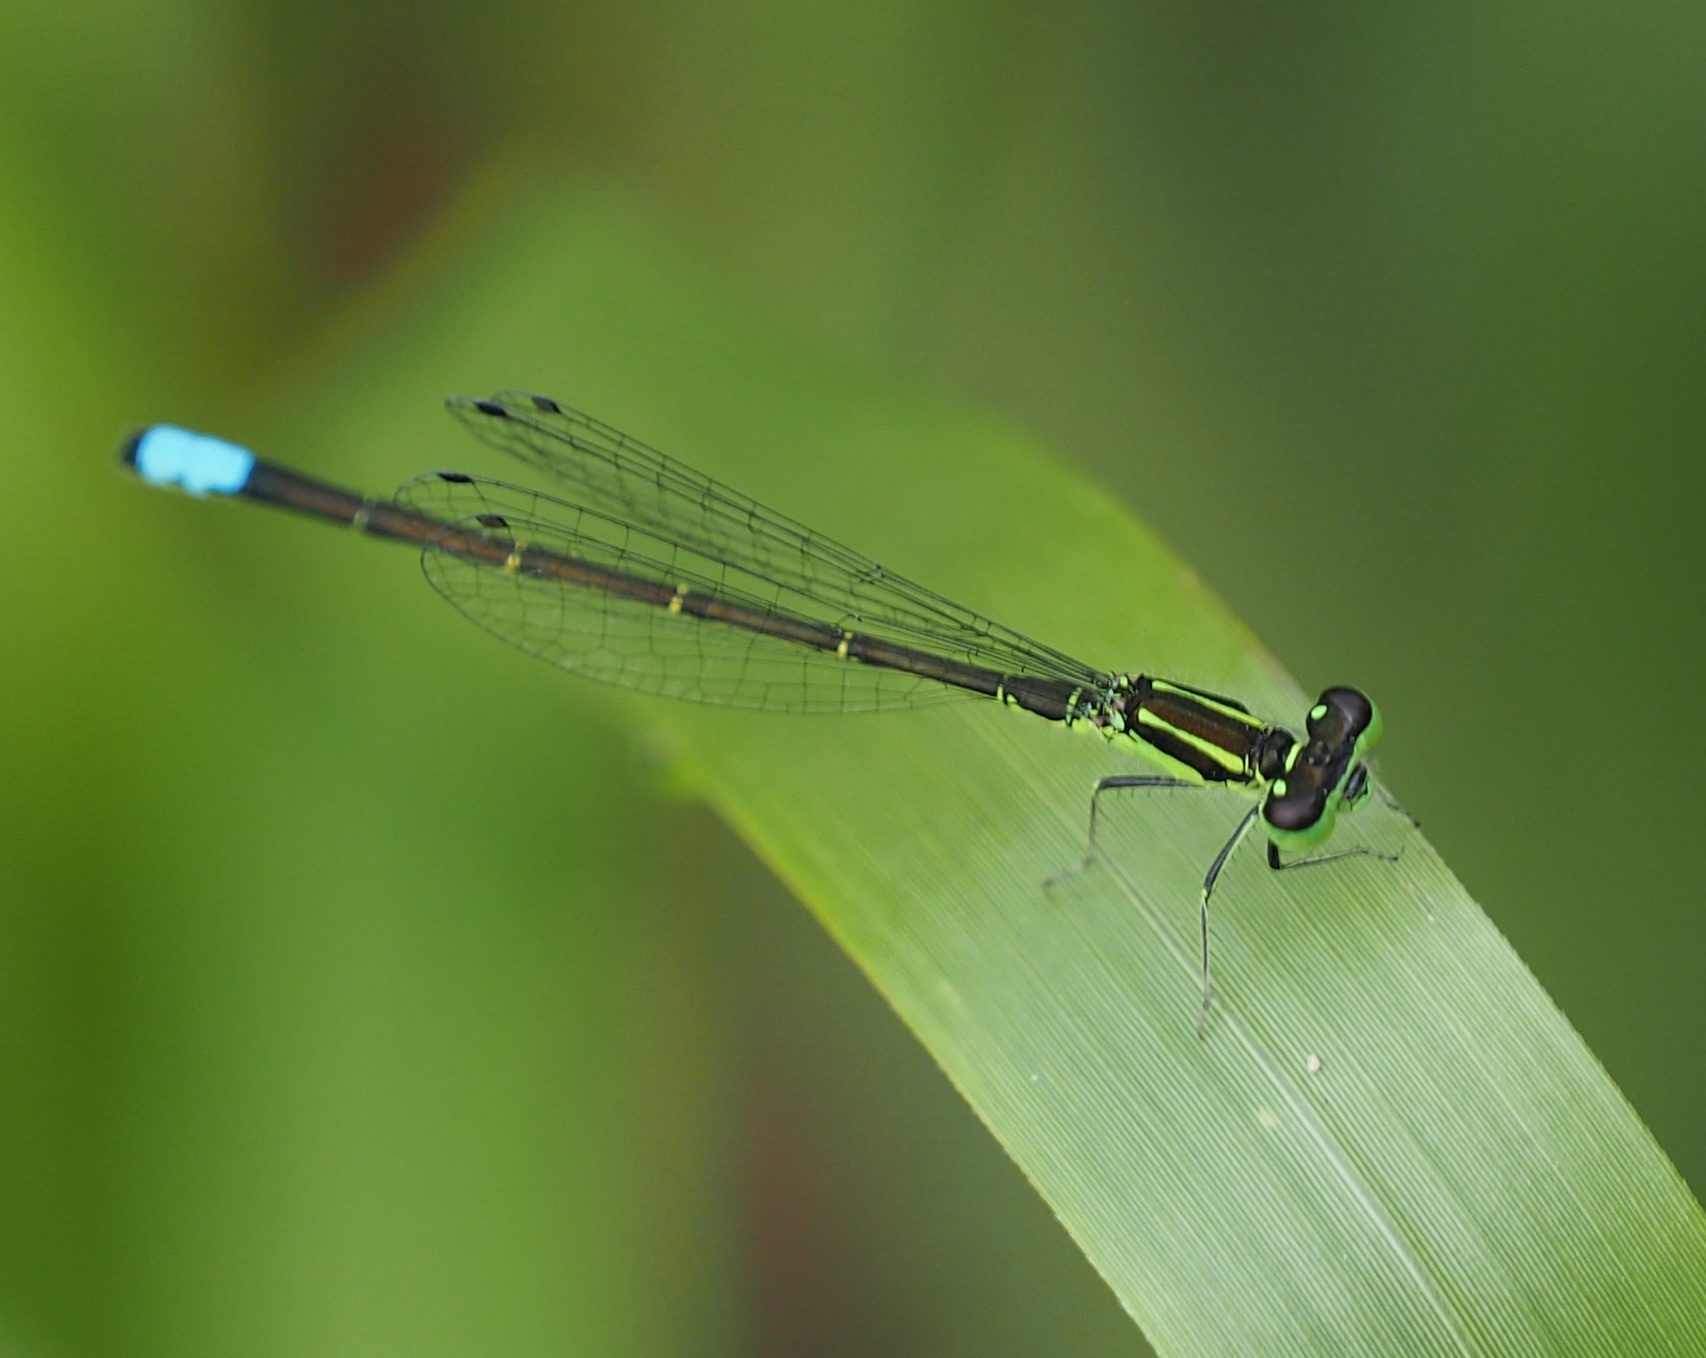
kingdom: Animalia
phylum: Arthropoda
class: Insecta
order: Odonata
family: Coenagrionidae
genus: Ischnura
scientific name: Ischnura verticalis
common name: Eastern forktail
